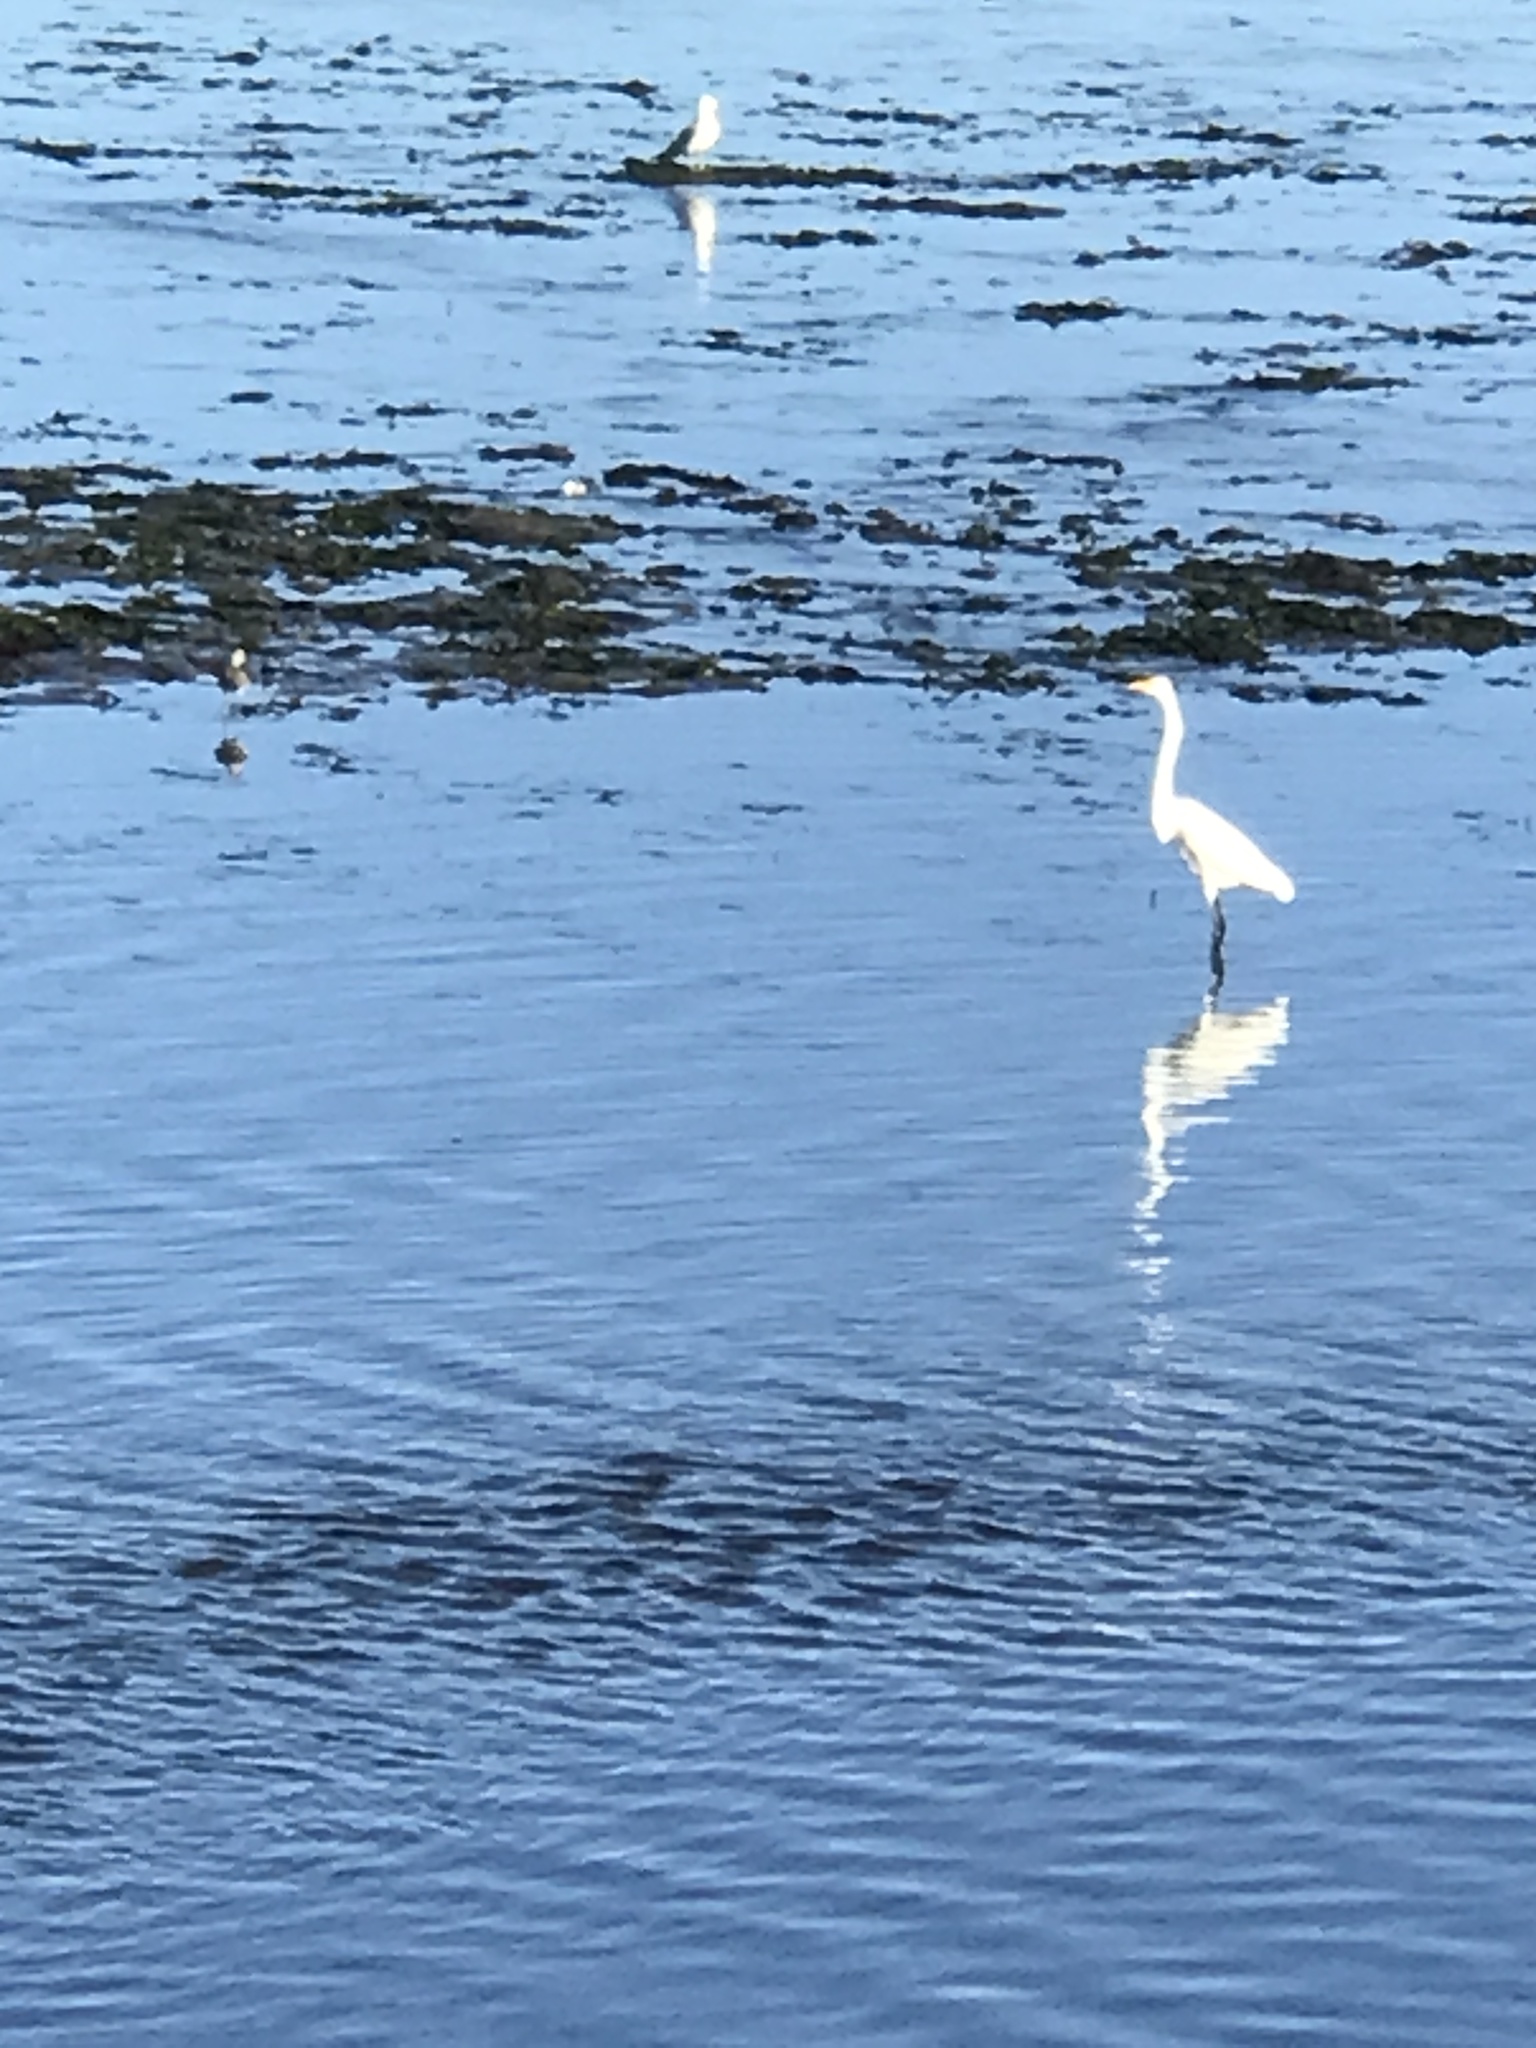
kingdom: Animalia
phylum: Chordata
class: Aves
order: Pelecaniformes
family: Ardeidae
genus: Ardea
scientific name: Ardea alba
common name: Great egret
